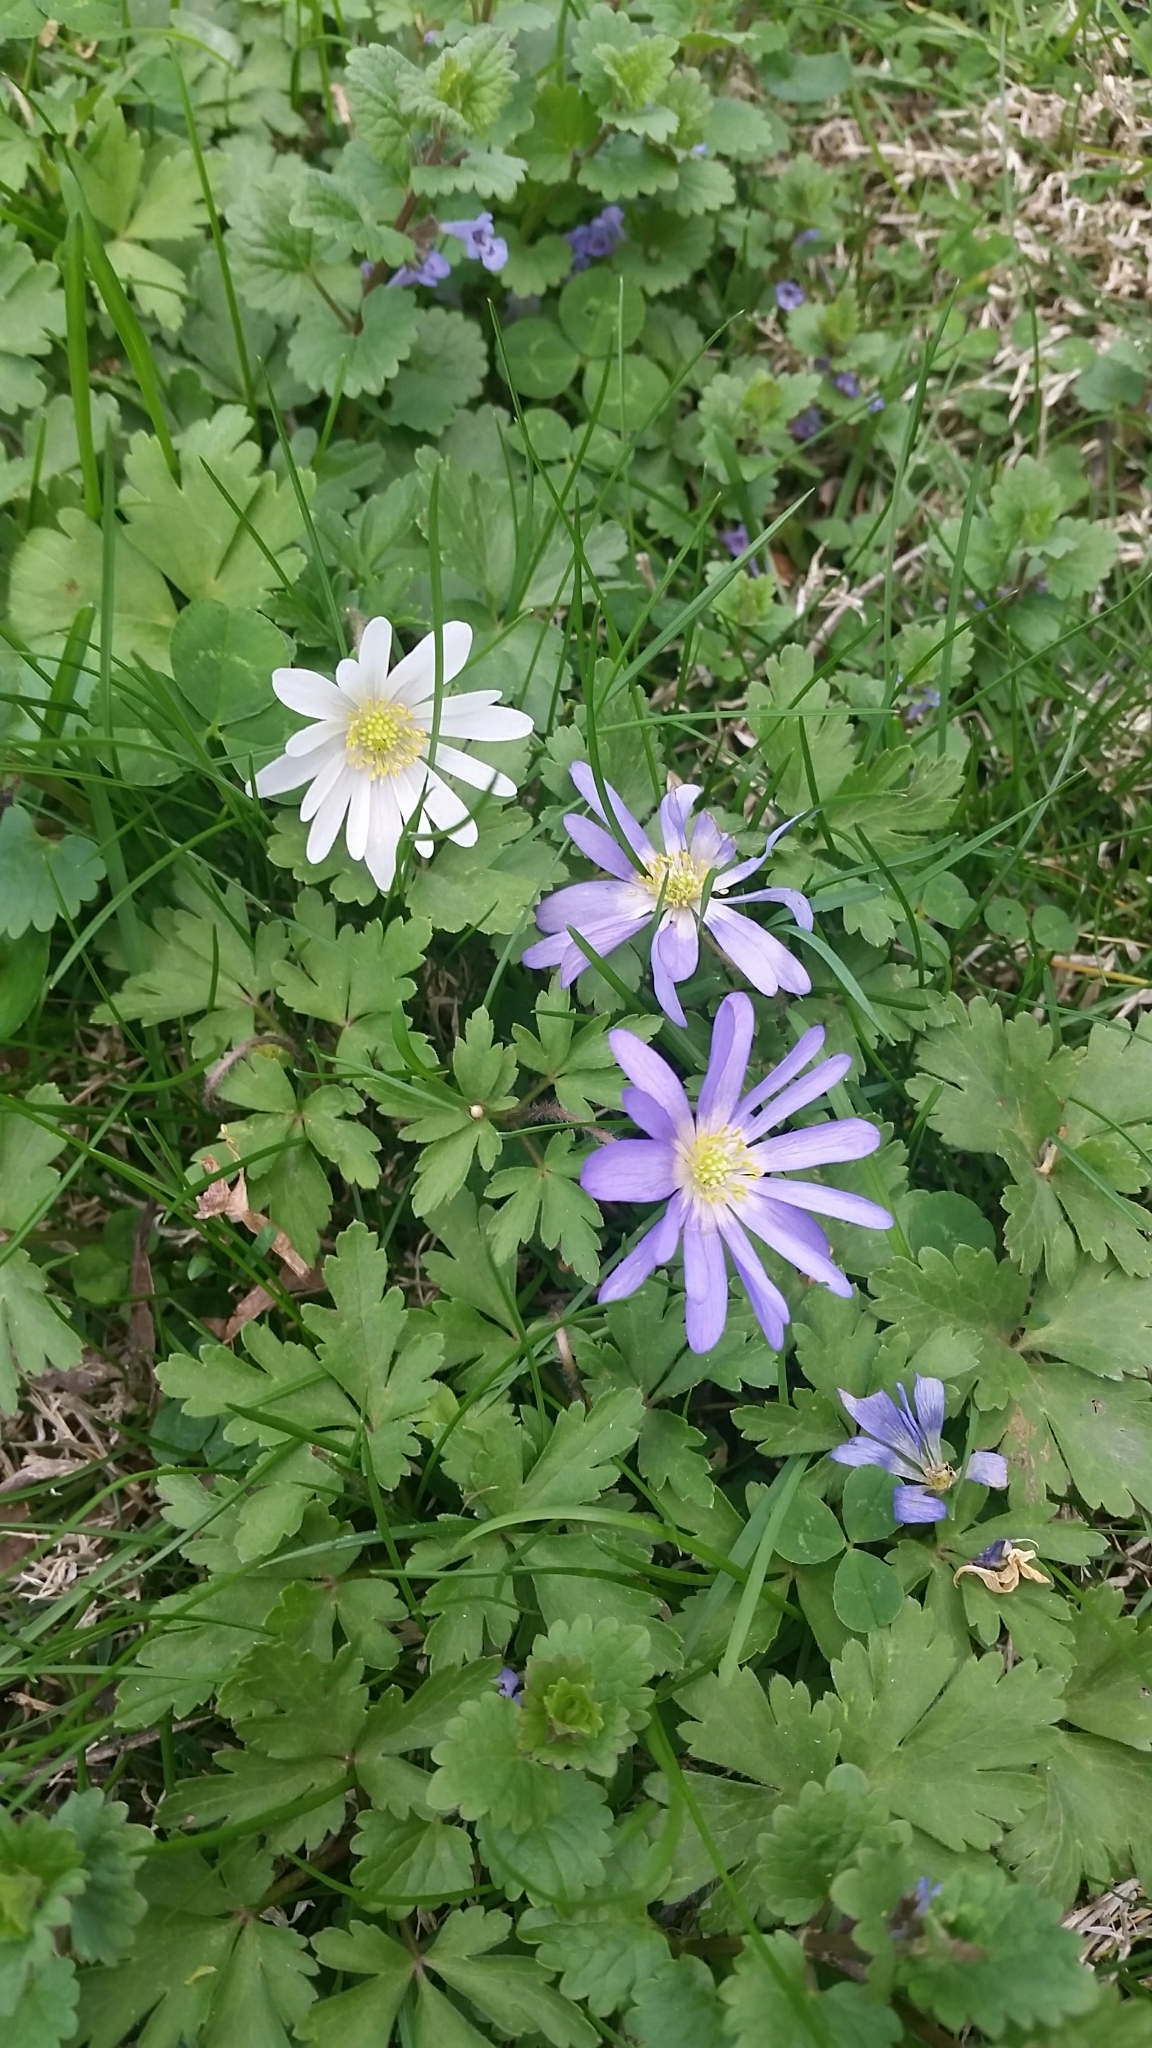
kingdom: Plantae
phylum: Tracheophyta
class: Magnoliopsida
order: Ranunculales
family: Ranunculaceae
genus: Anemone
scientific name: Anemone blanda
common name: Balkan anemone
